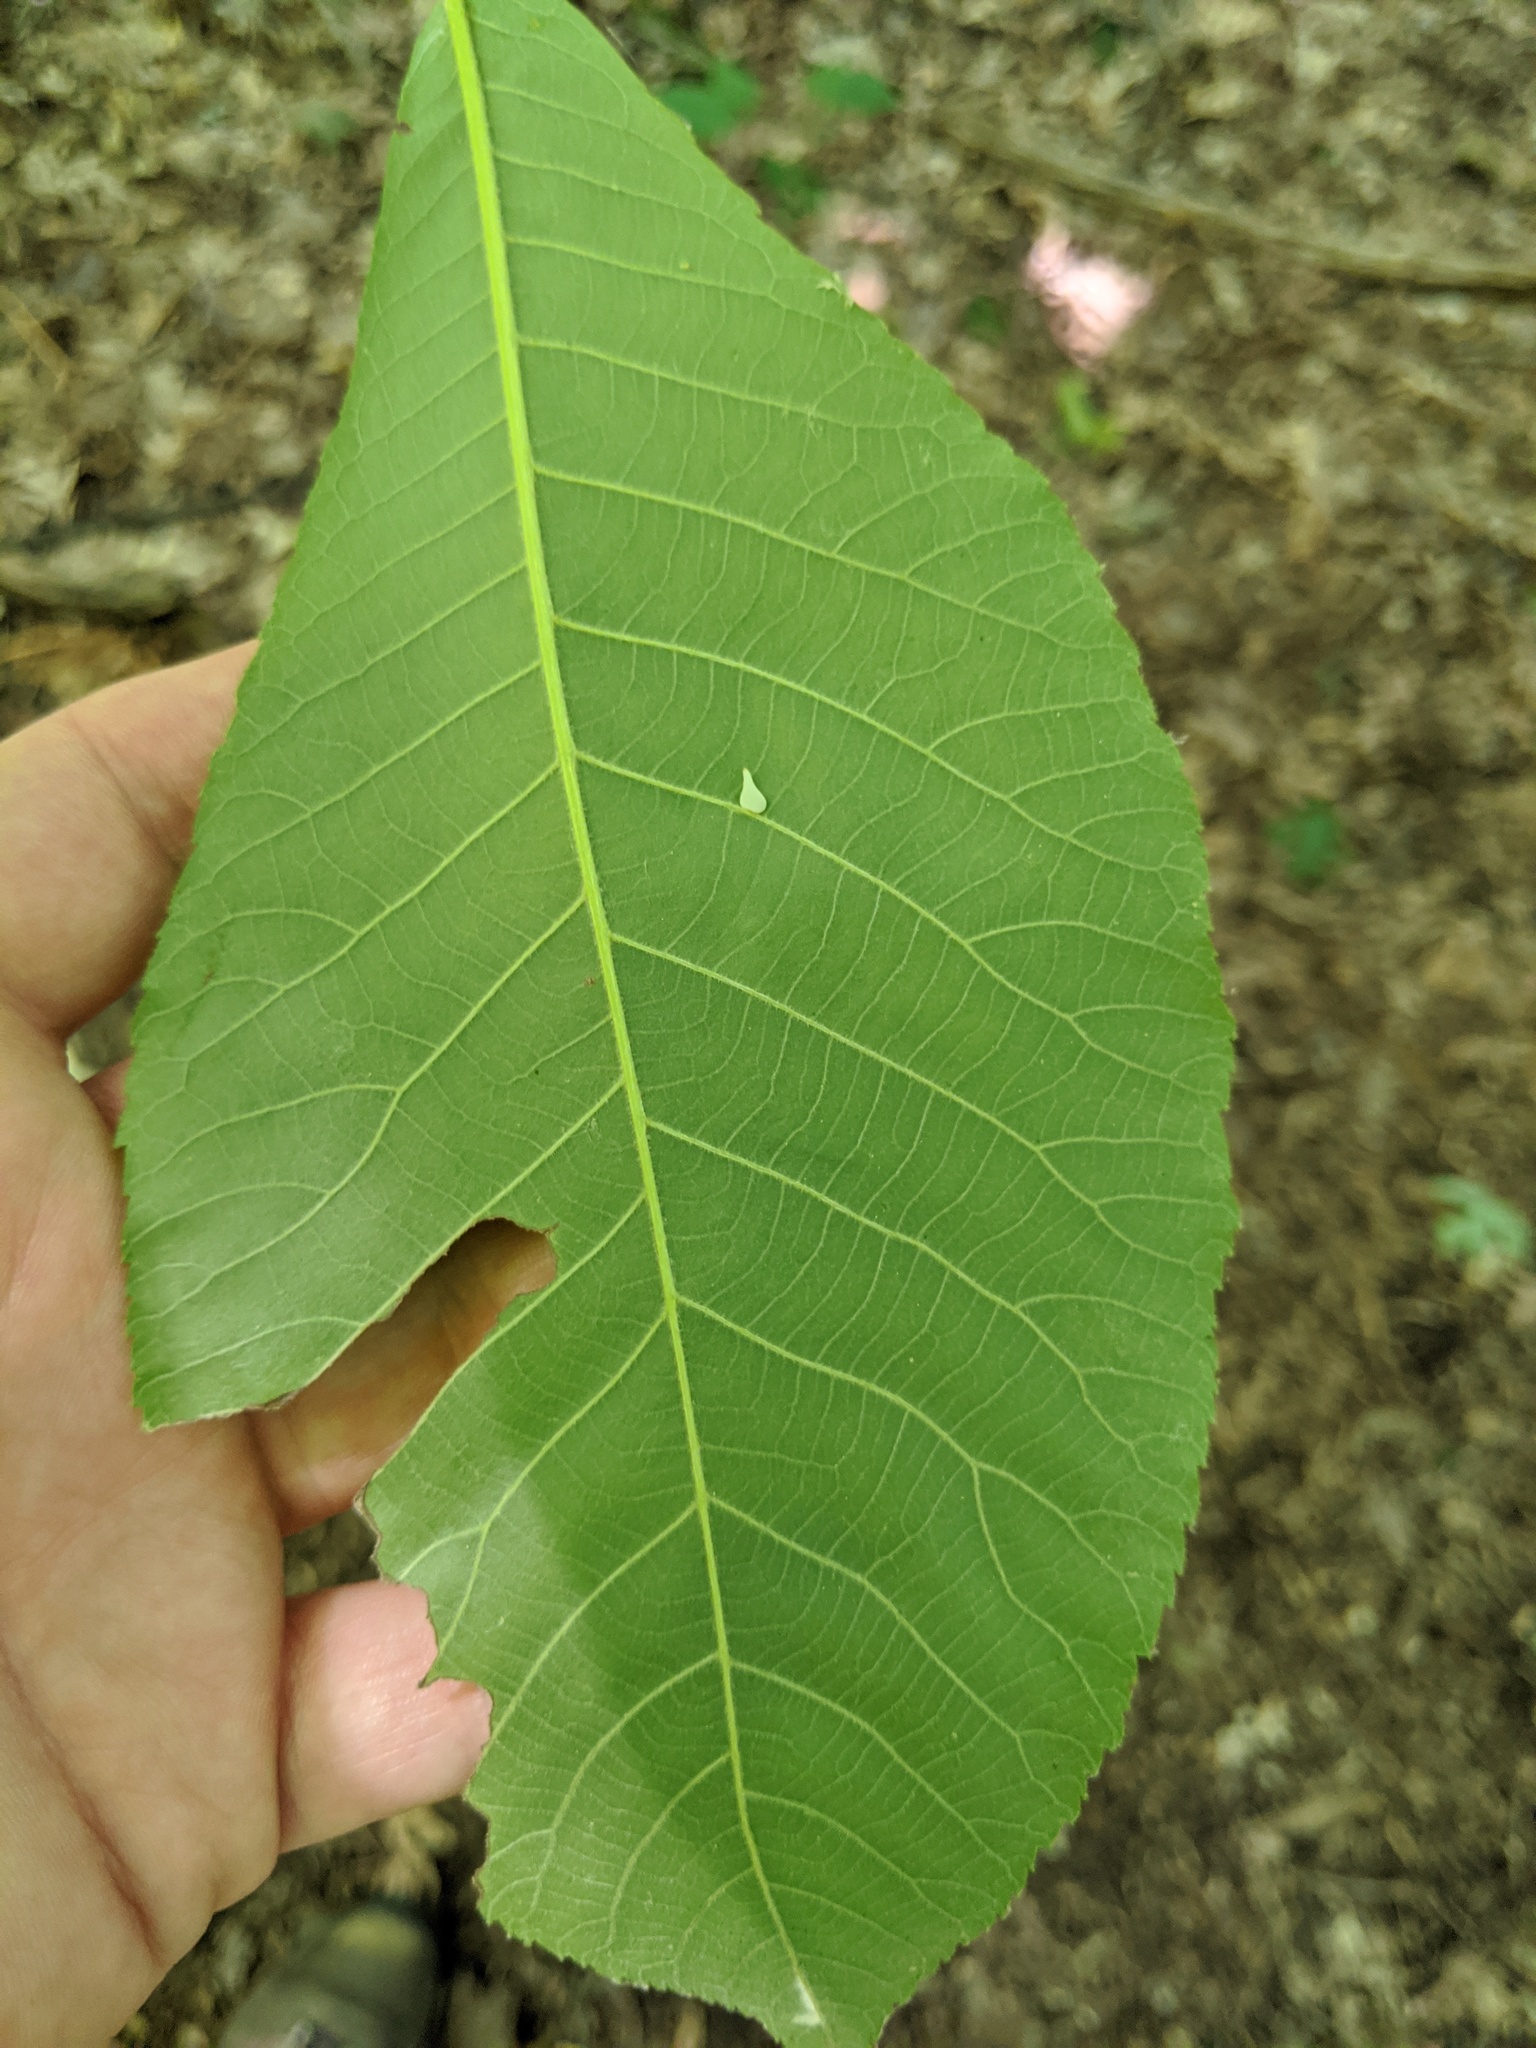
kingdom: Animalia
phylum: Arthropoda
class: Insecta
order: Diptera
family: Cecidomyiidae
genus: Caryomyia
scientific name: Caryomyia caryaecola
